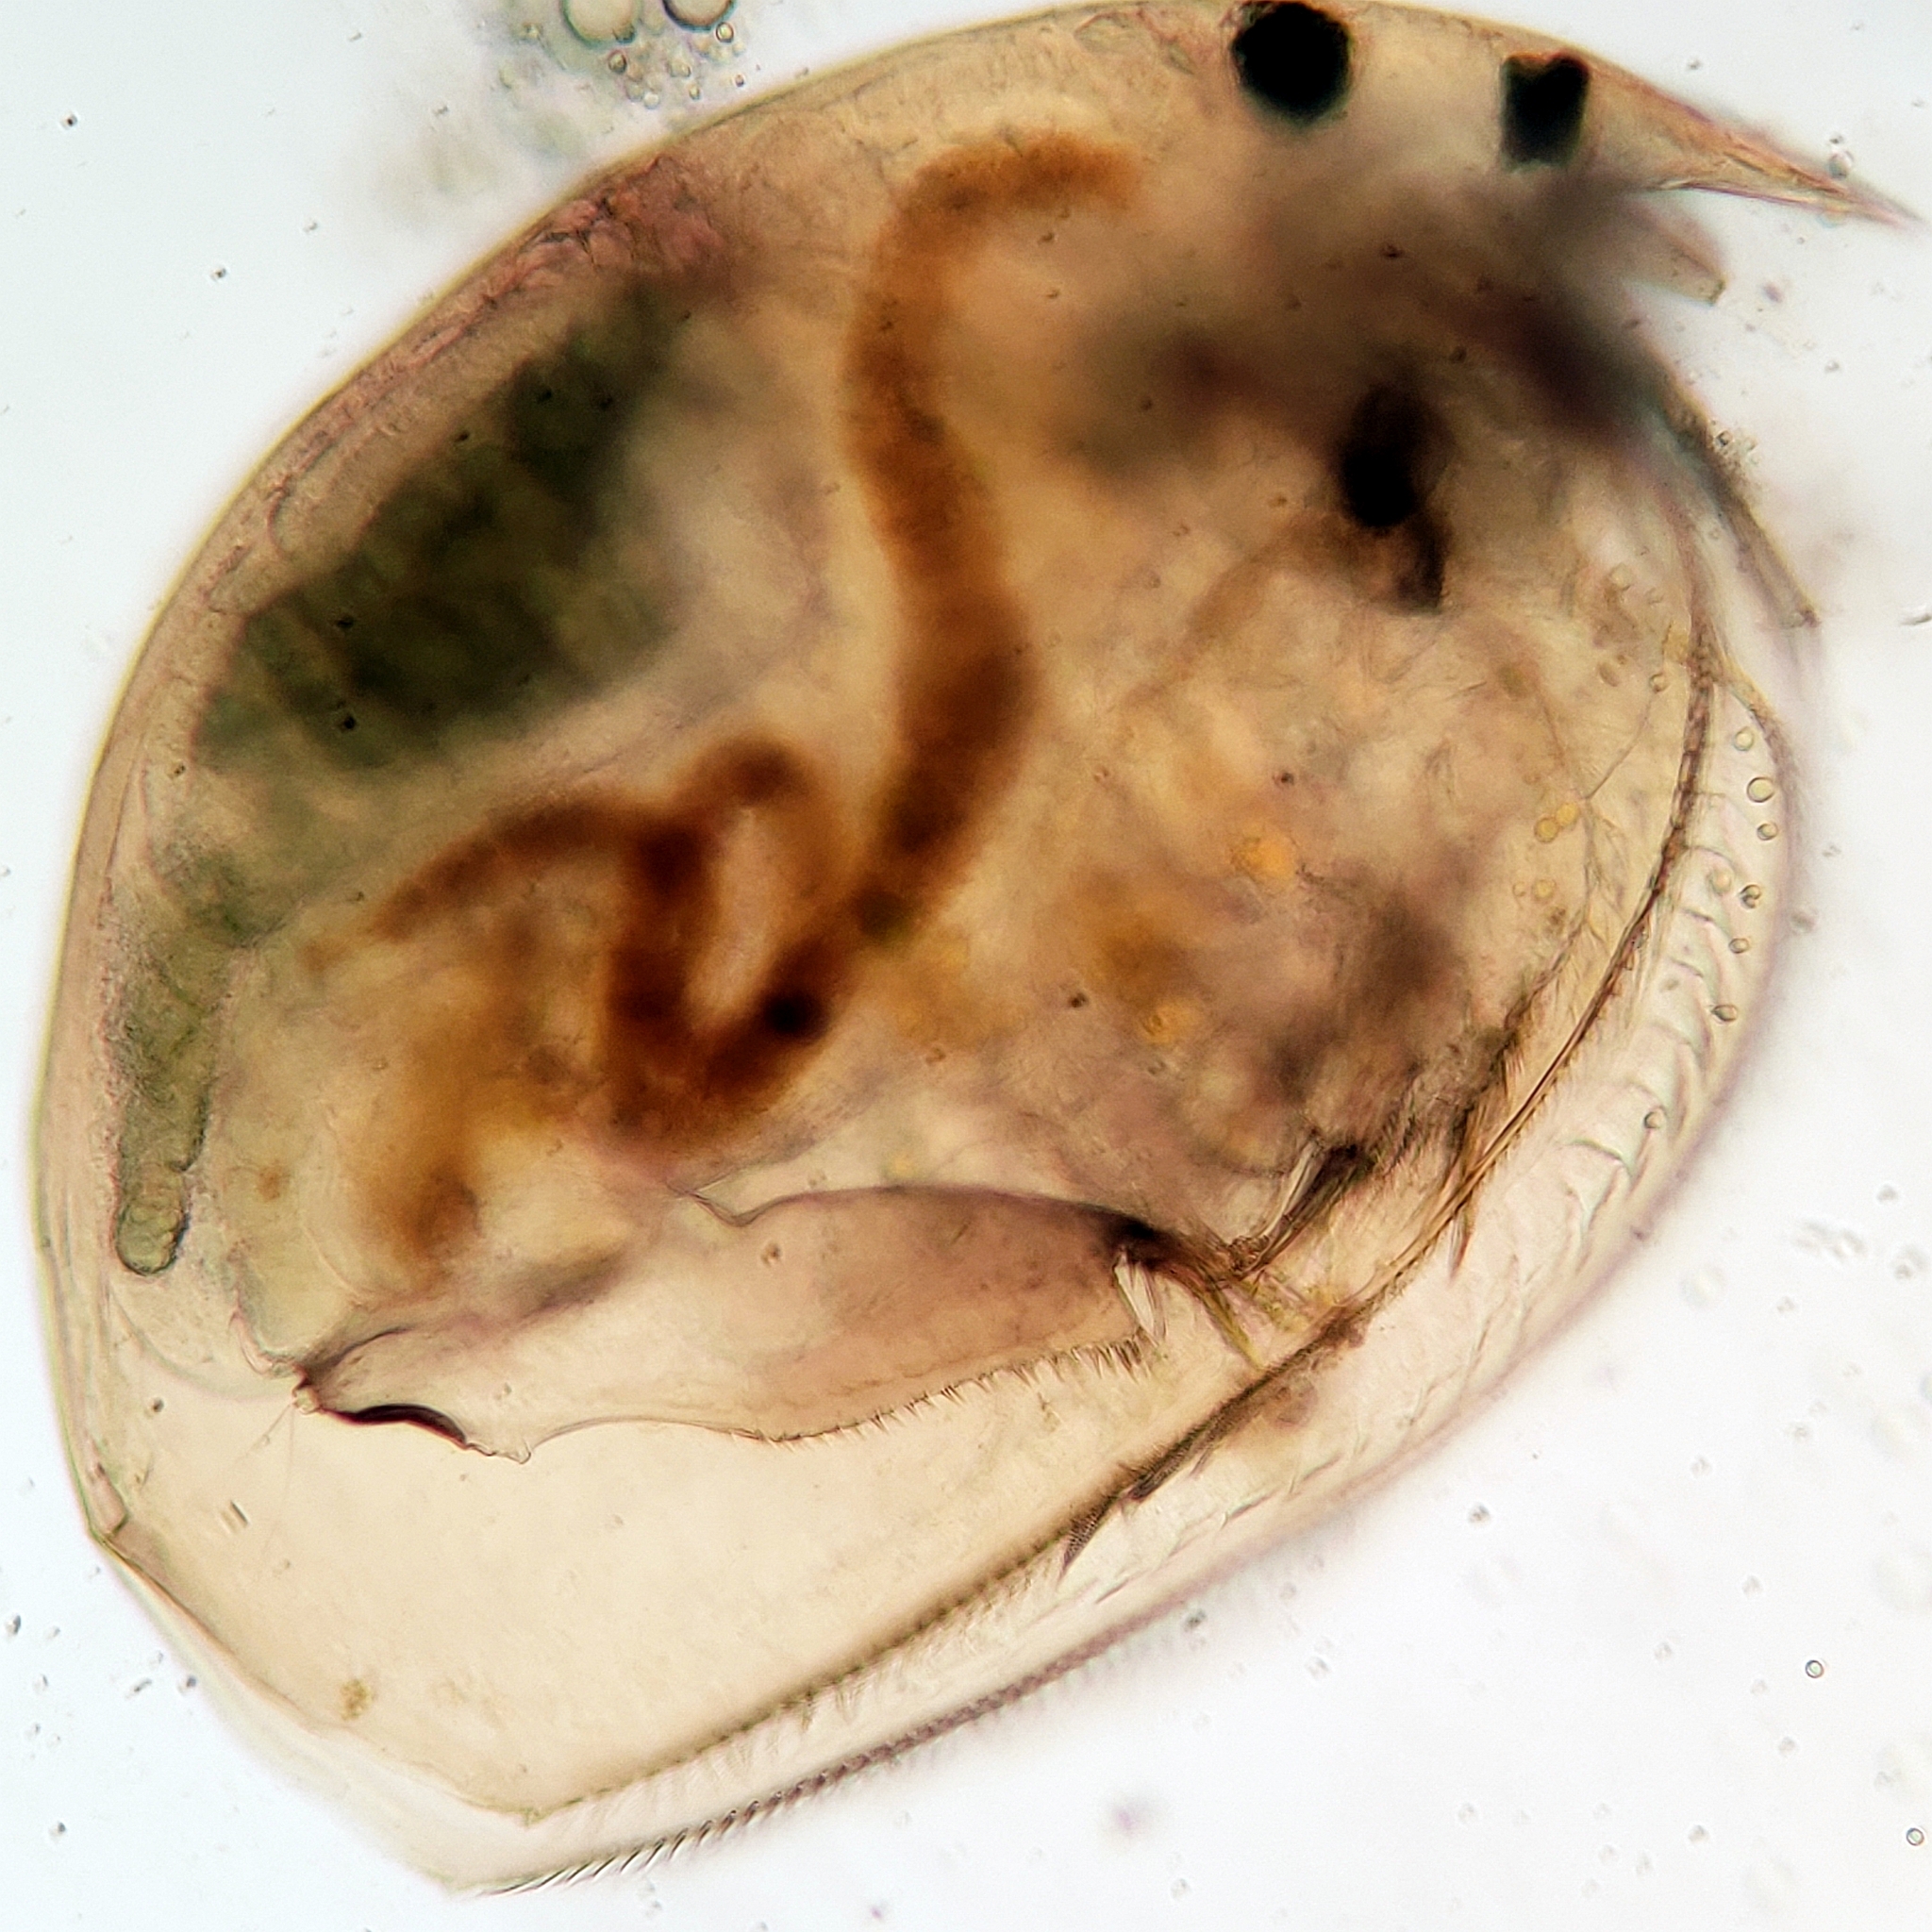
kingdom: Animalia
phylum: Arthropoda
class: Branchiopoda
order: Diplostraca
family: Chydoridae
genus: Picripleuroxus
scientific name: Picripleuroxus denticulatus
